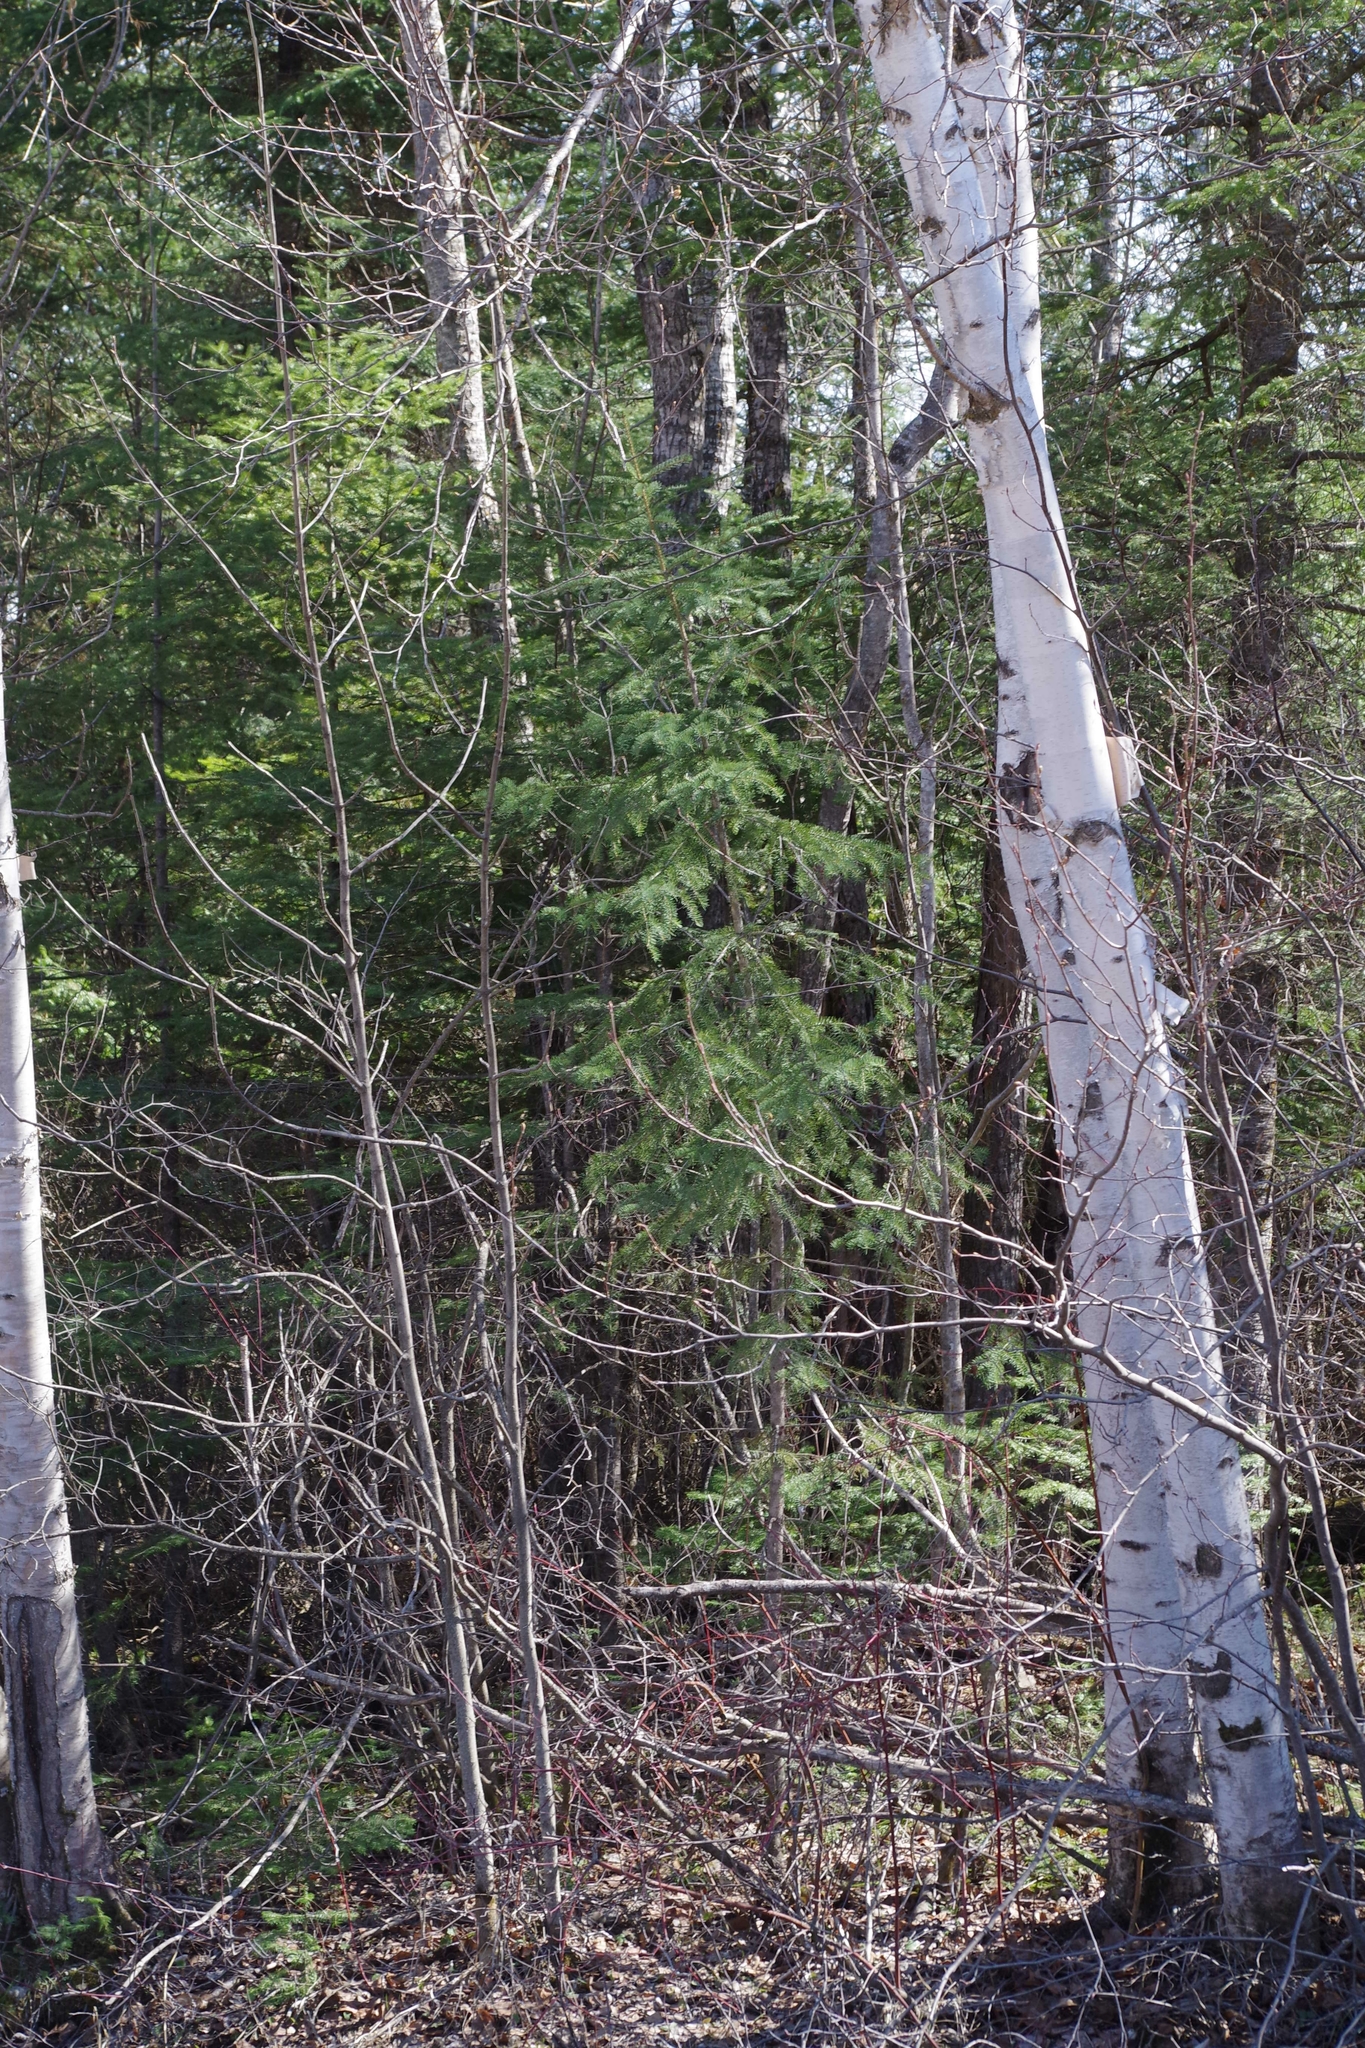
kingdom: Plantae
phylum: Tracheophyta
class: Pinopsida
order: Pinales
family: Pinaceae
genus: Picea
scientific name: Picea glauca
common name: White spruce
